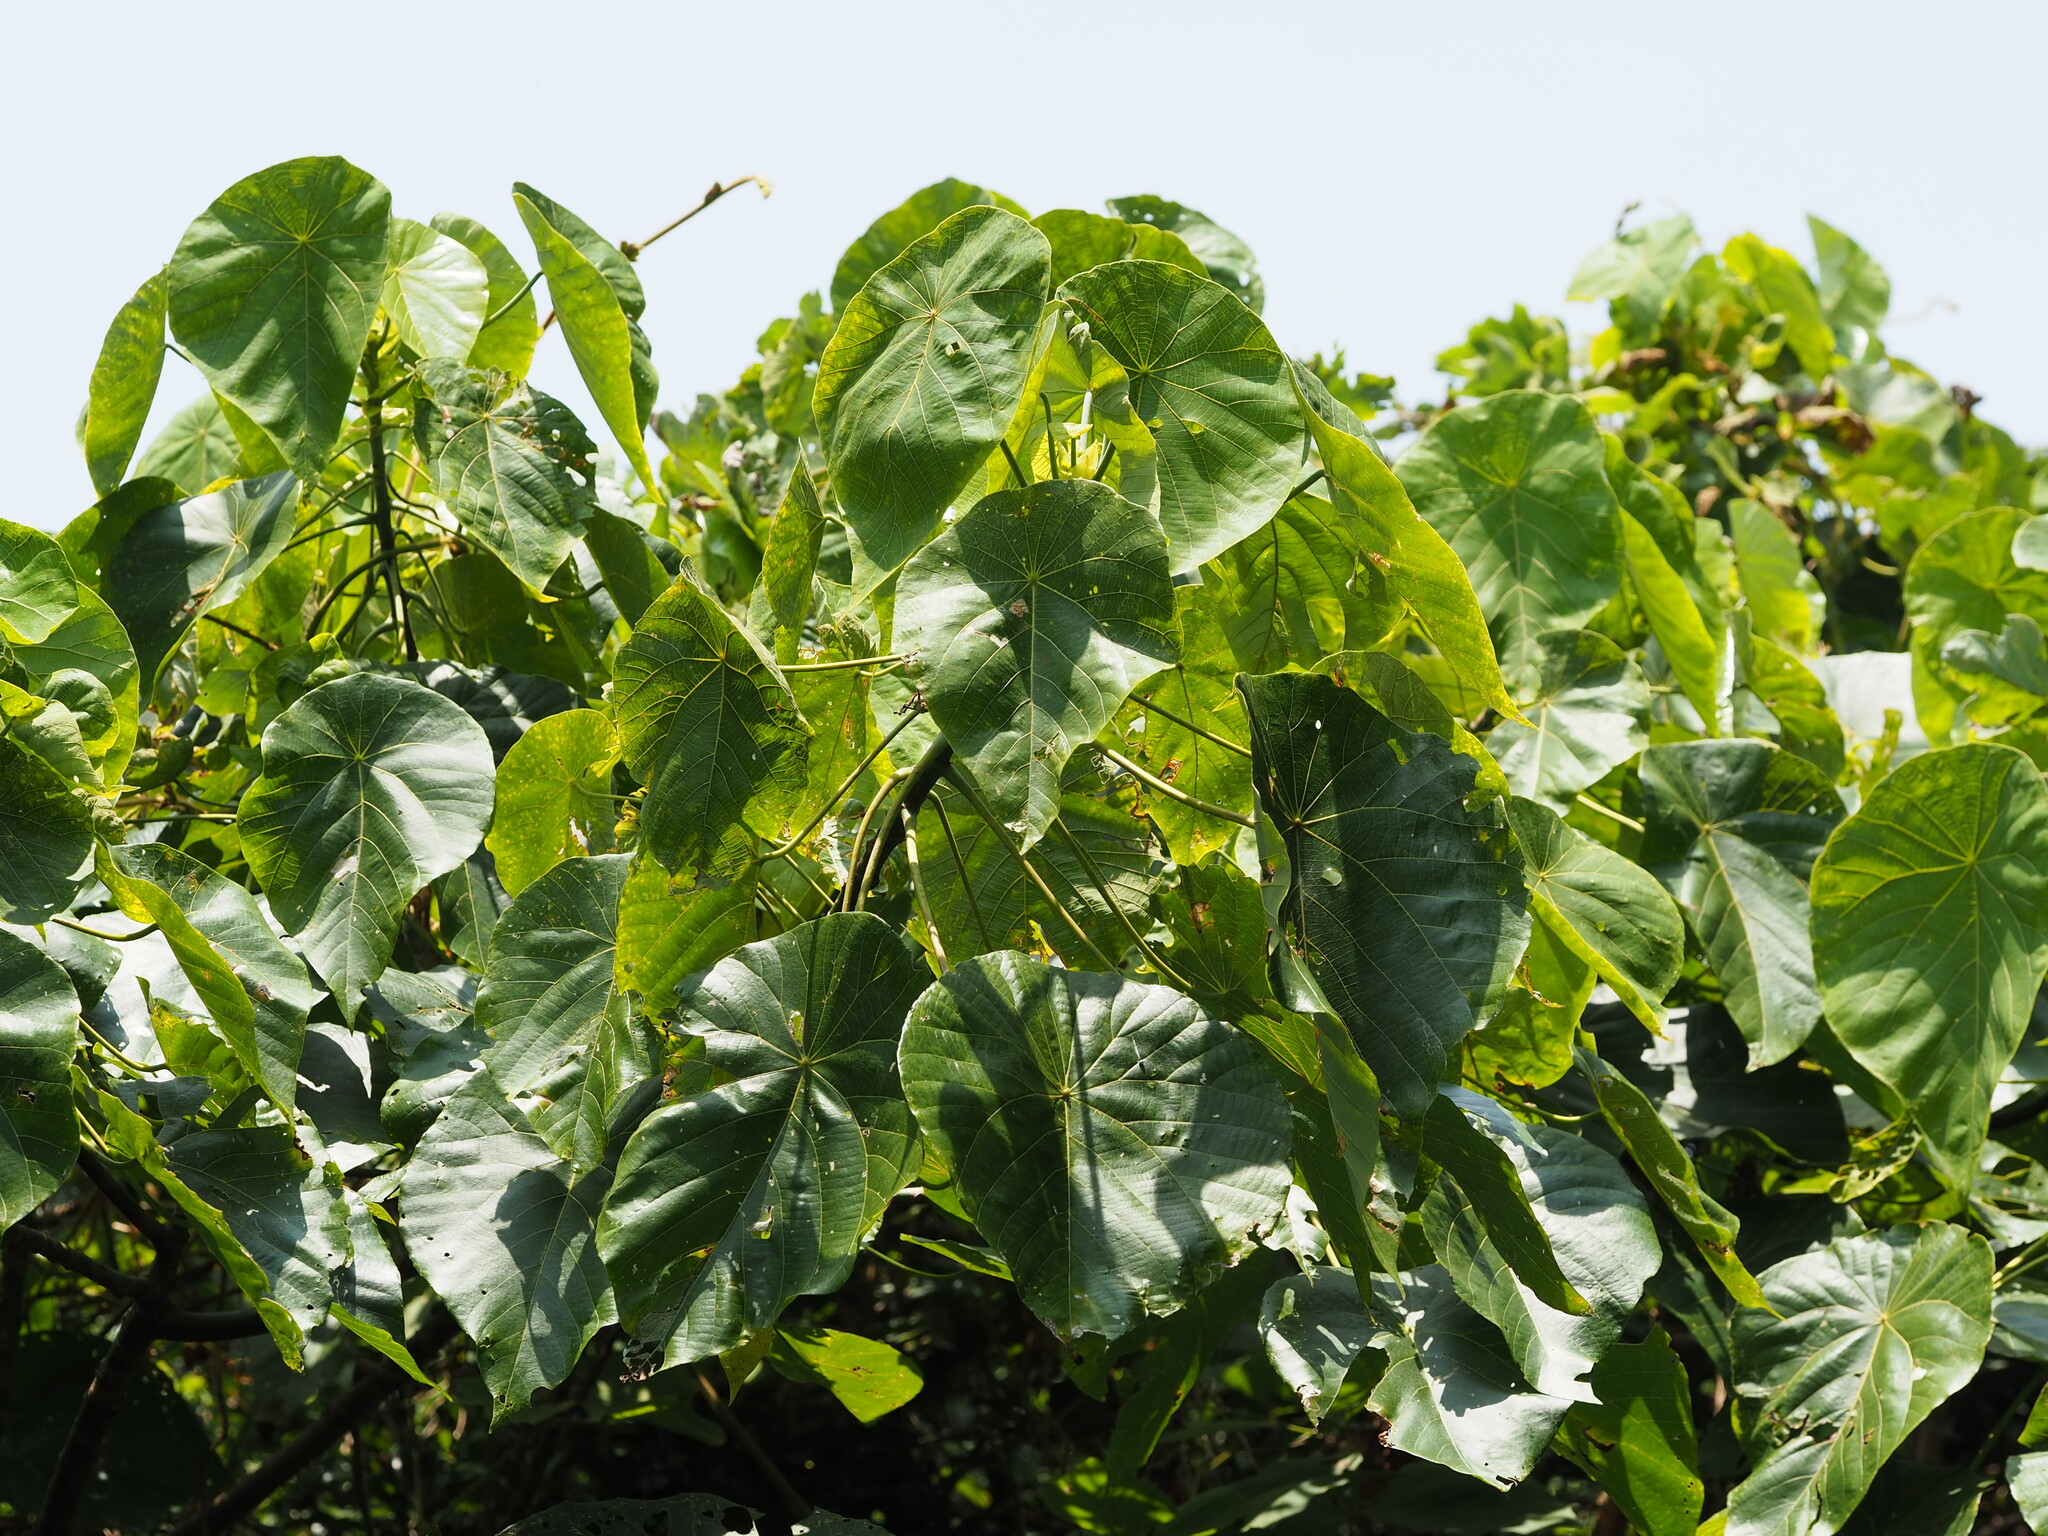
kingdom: Plantae
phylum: Tracheophyta
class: Magnoliopsida
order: Malpighiales
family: Euphorbiaceae
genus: Macaranga
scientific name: Macaranga tanarius
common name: Parasol leaf tree
